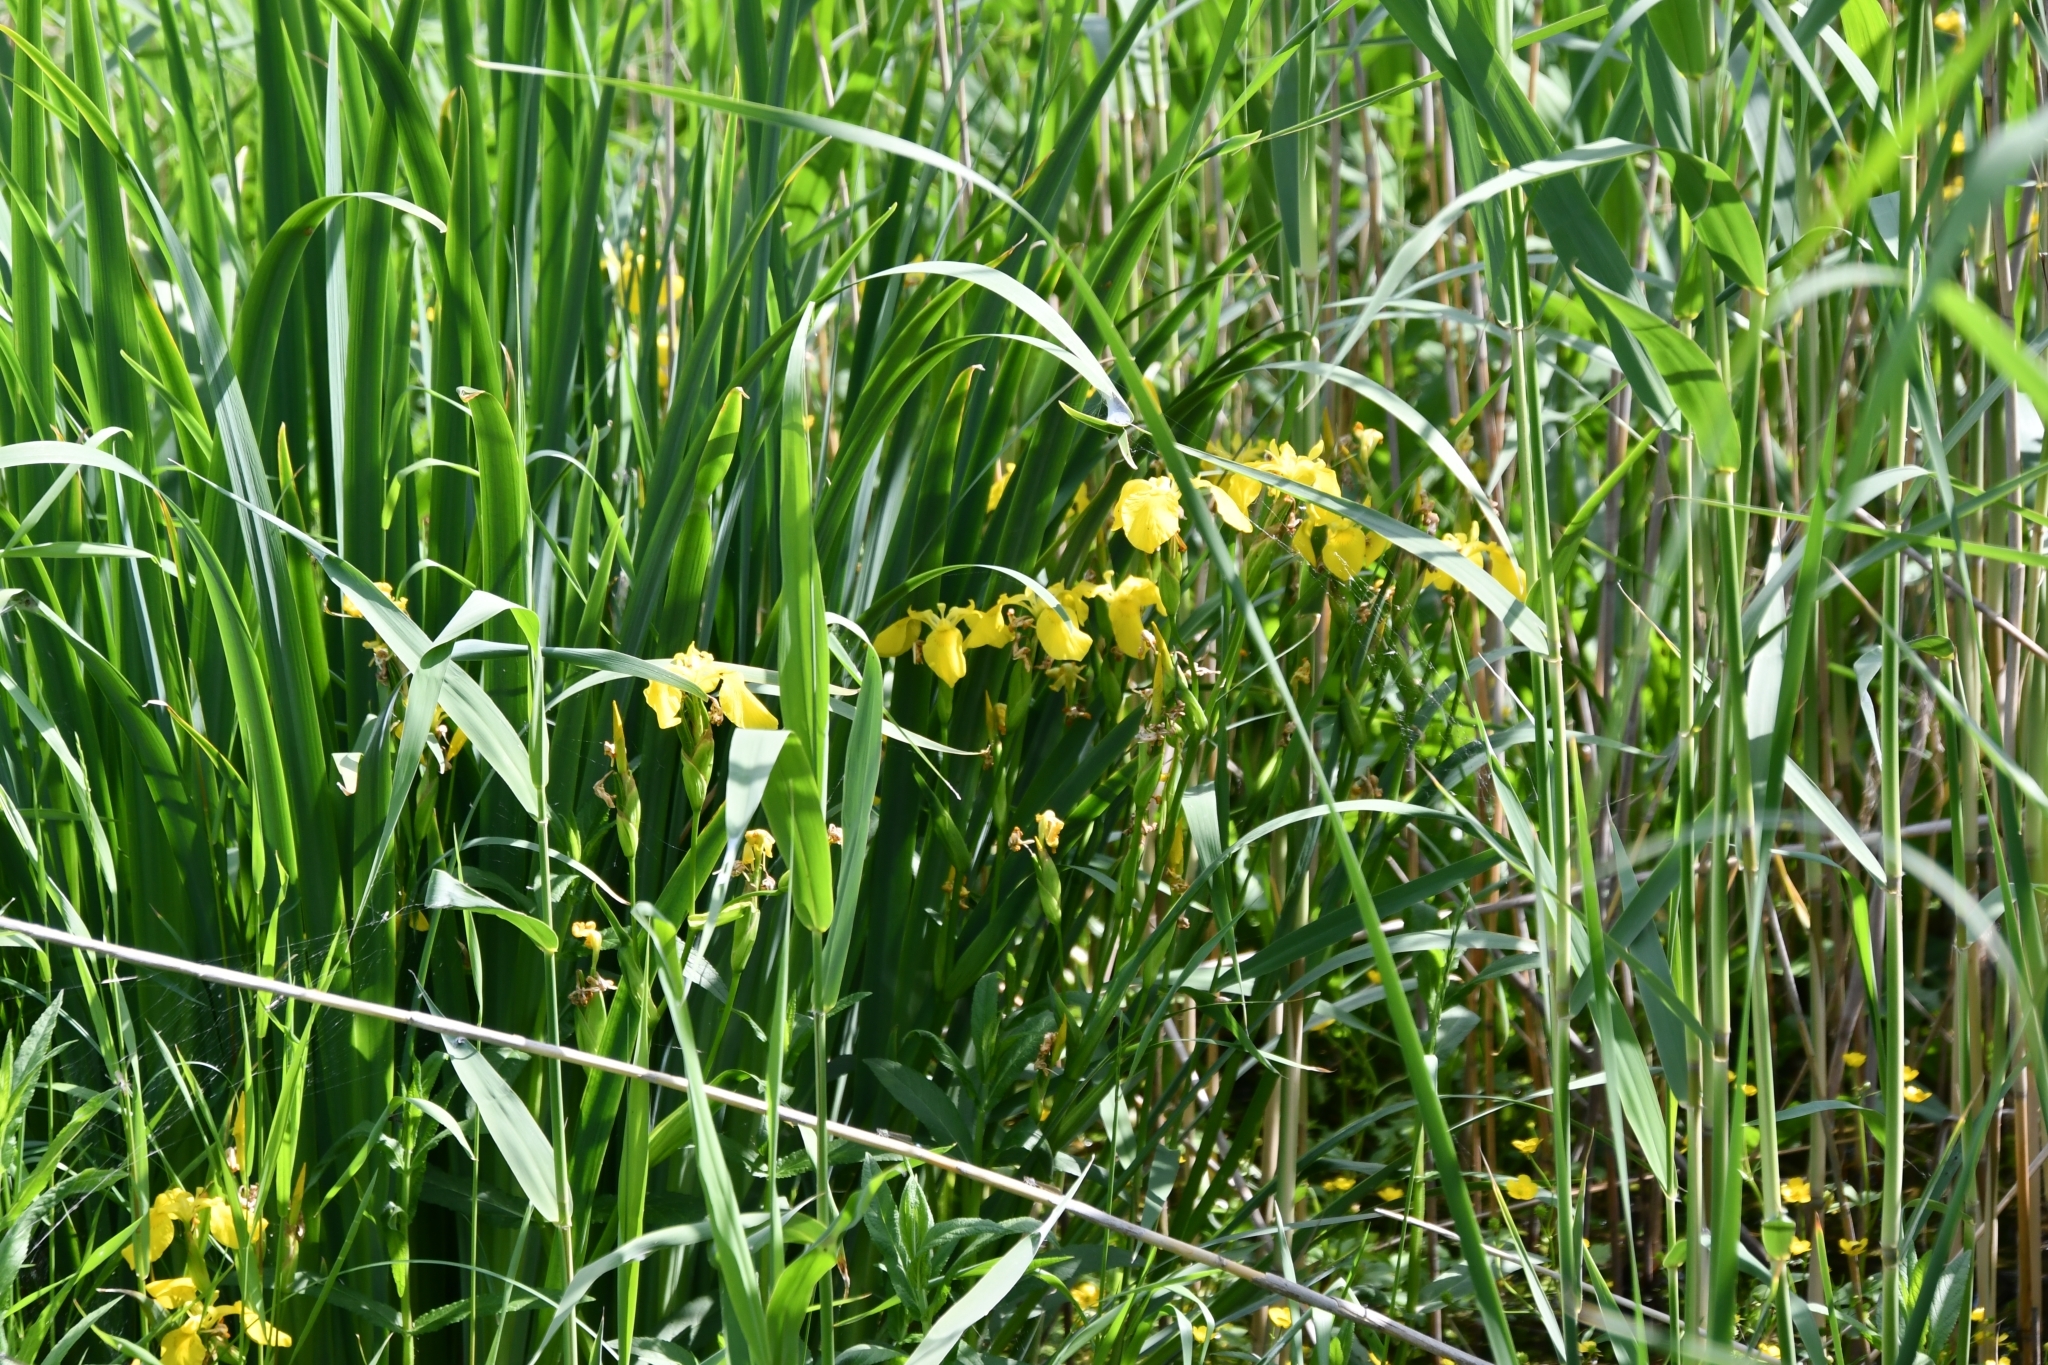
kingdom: Plantae
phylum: Tracheophyta
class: Liliopsida
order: Asparagales
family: Iridaceae
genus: Iris
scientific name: Iris pseudacorus
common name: Yellow flag
